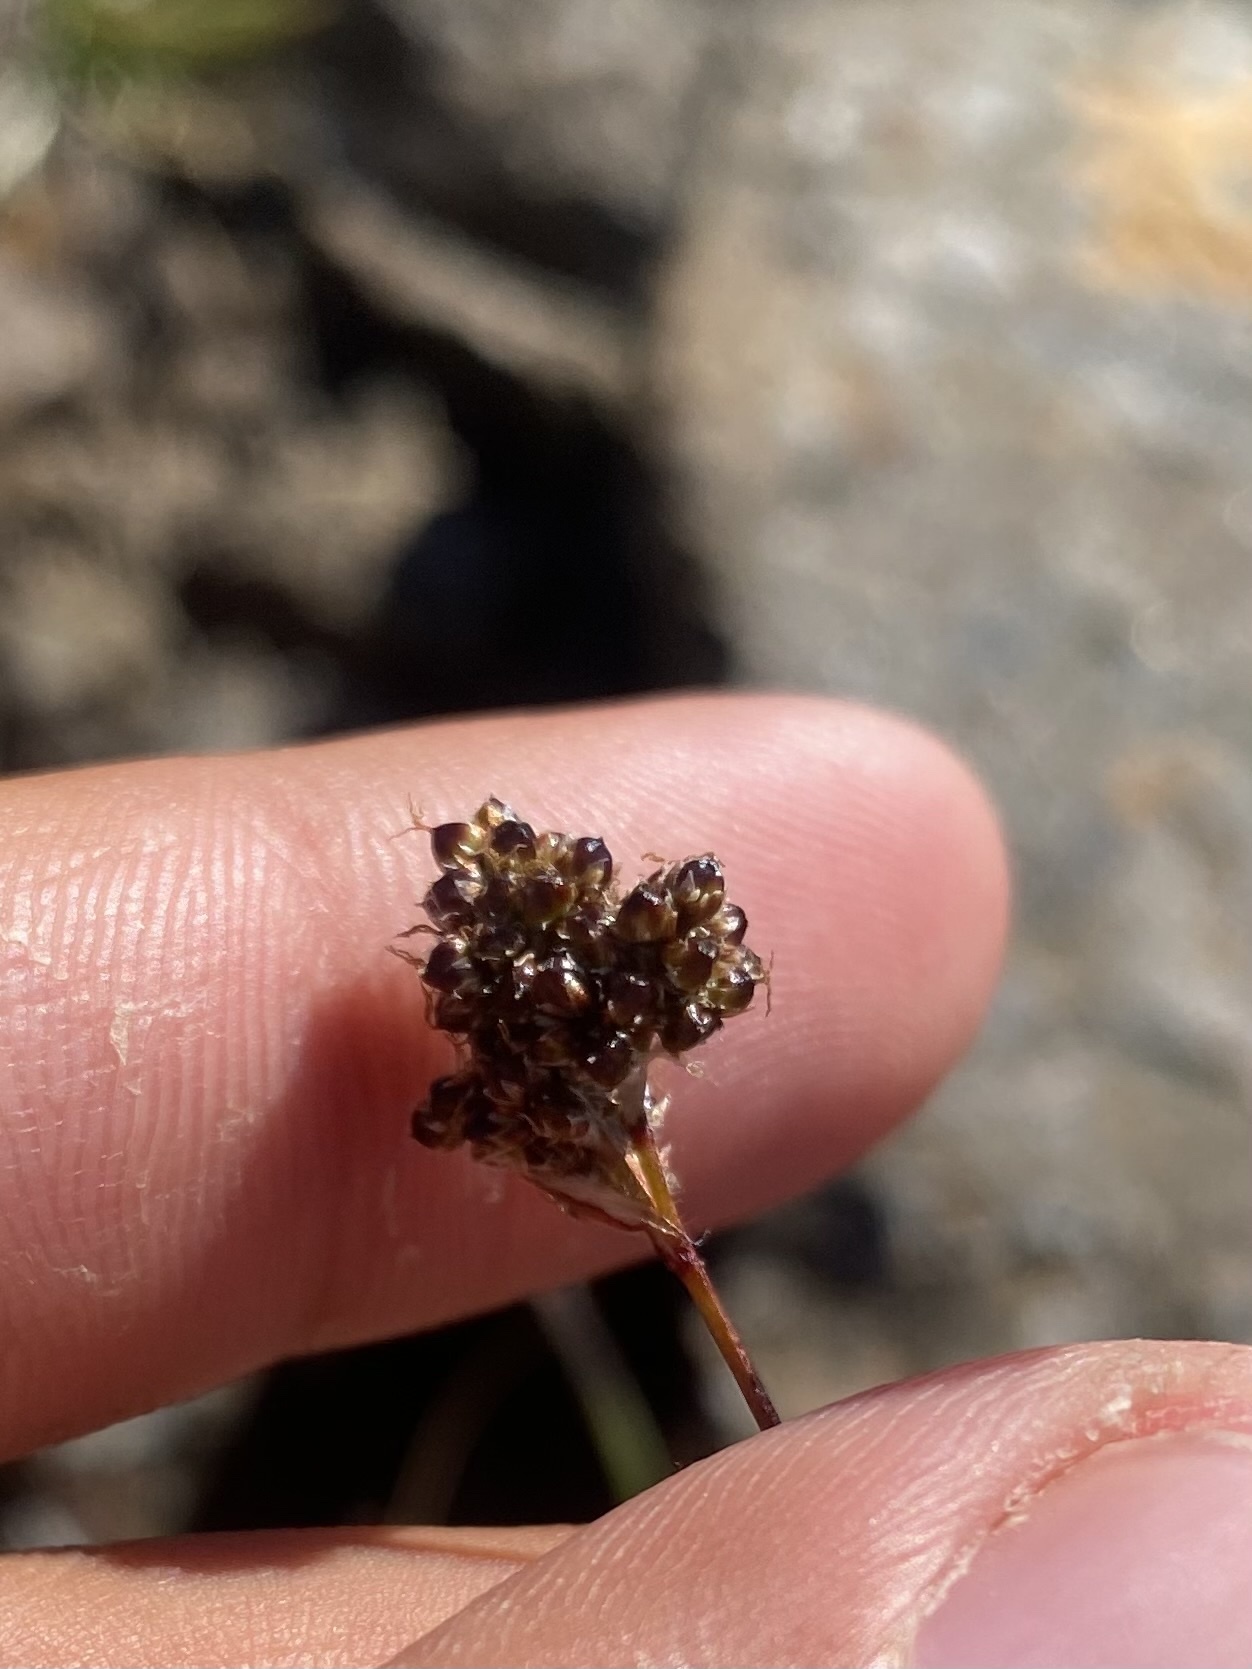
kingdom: Plantae
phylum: Tracheophyta
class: Liliopsida
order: Poales
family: Juncaceae
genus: Luzula
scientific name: Luzula confusa
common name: Northern wood rush
